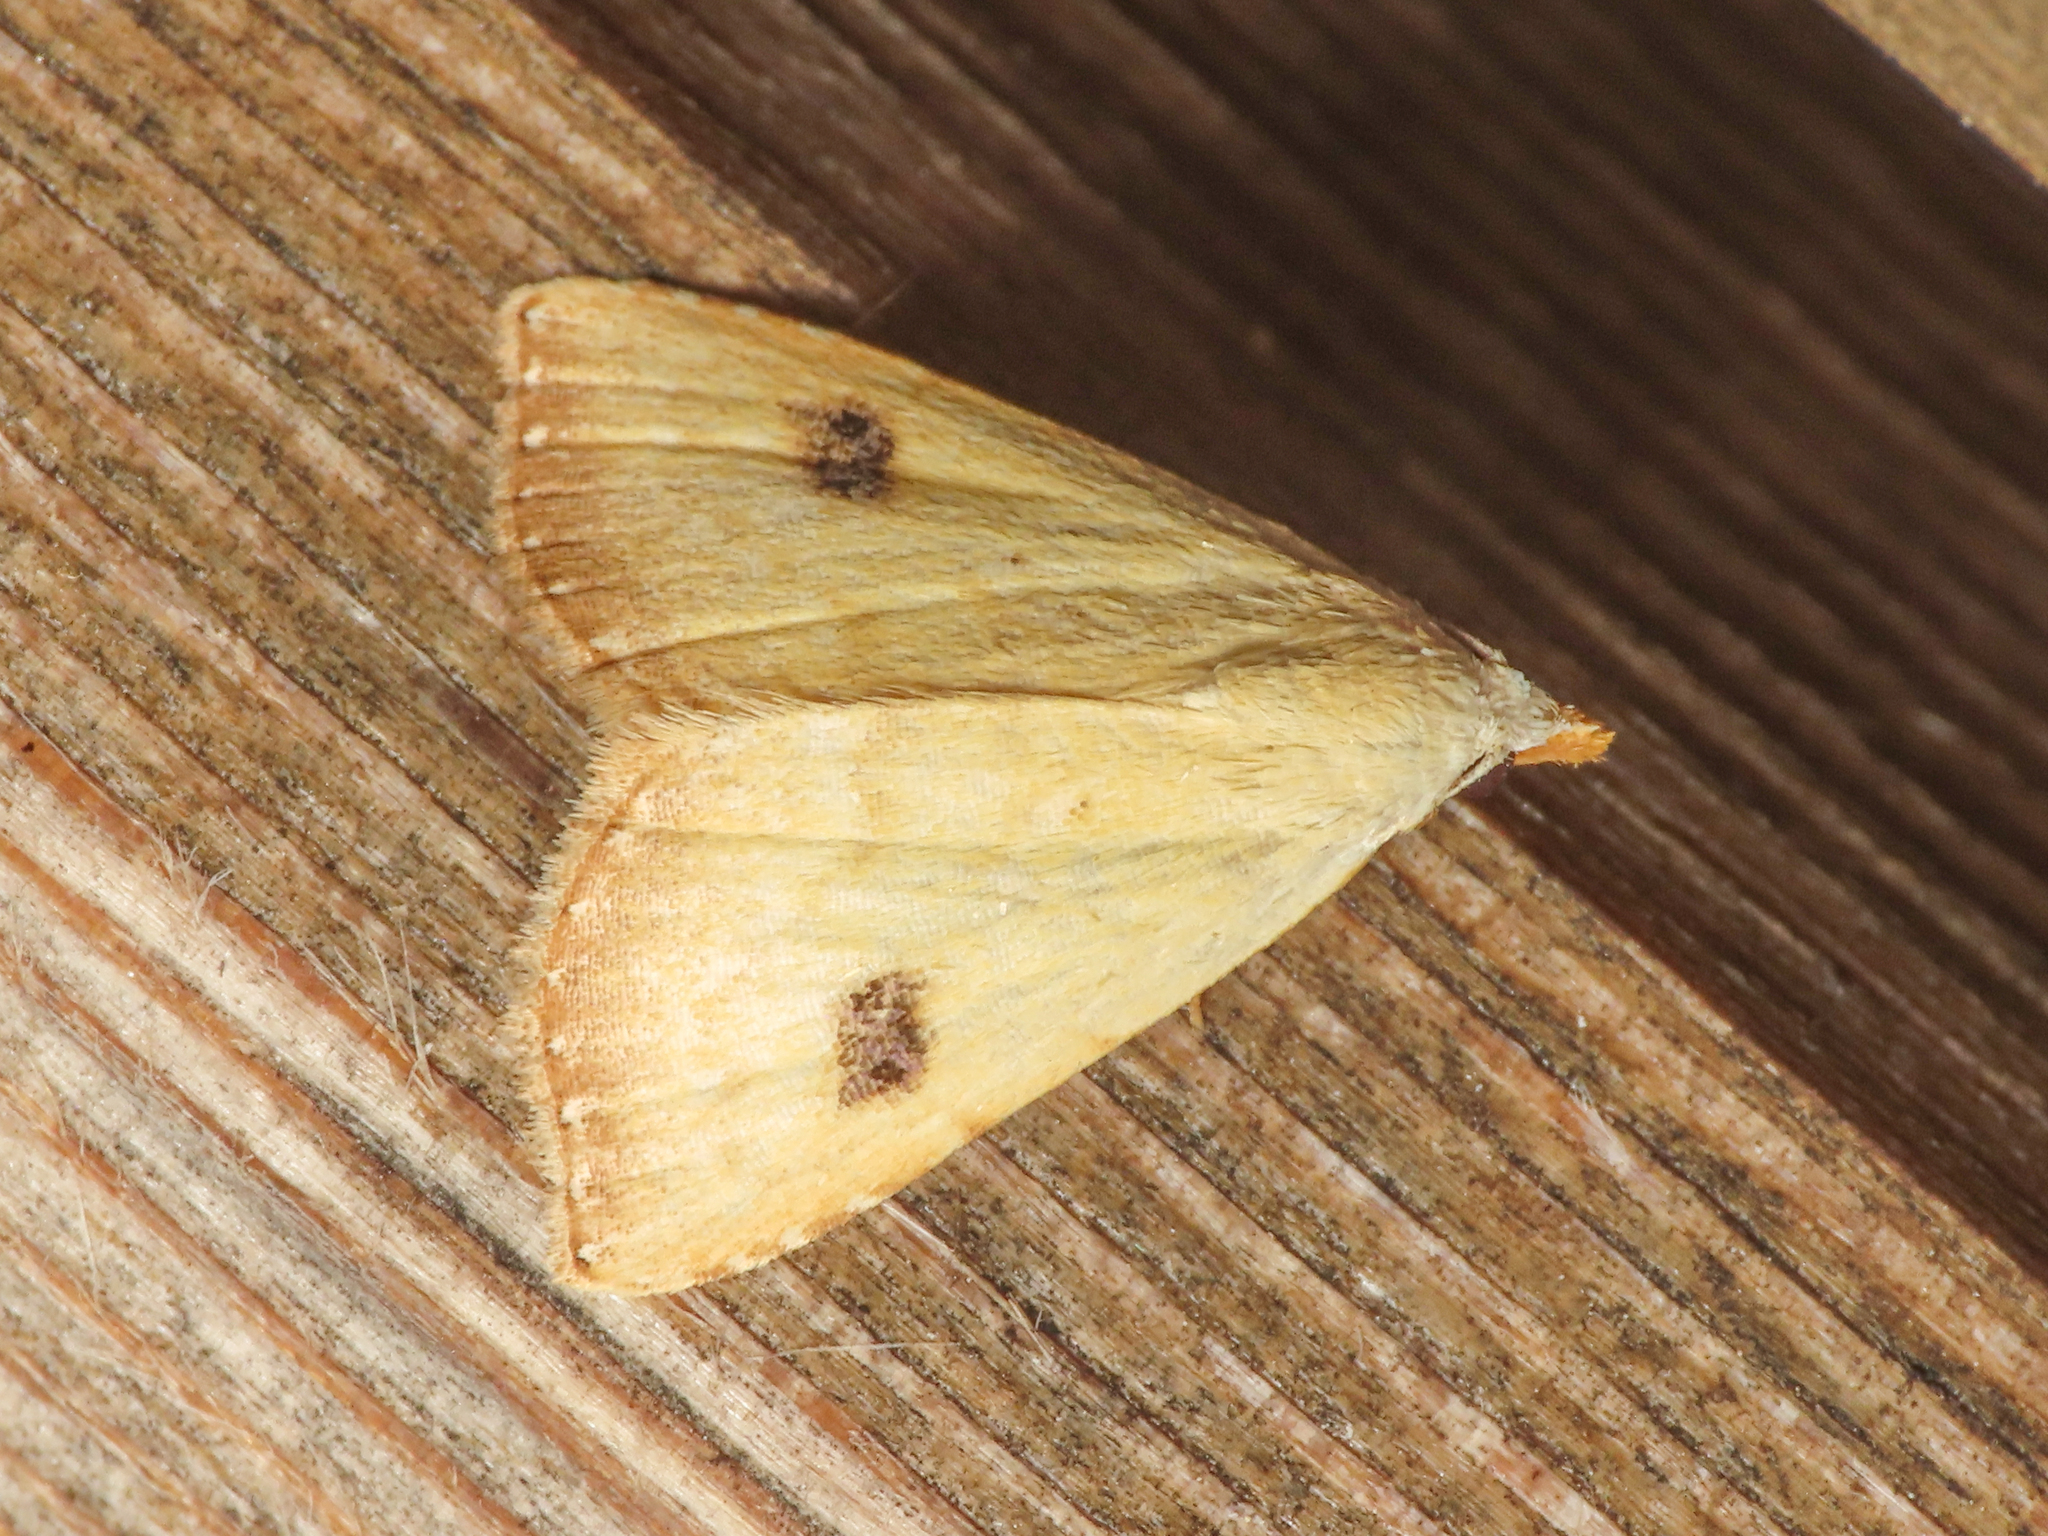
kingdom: Animalia
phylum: Arthropoda
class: Insecta
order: Lepidoptera
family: Erebidae
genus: Rivula
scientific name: Rivula sericealis
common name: Straw dot
